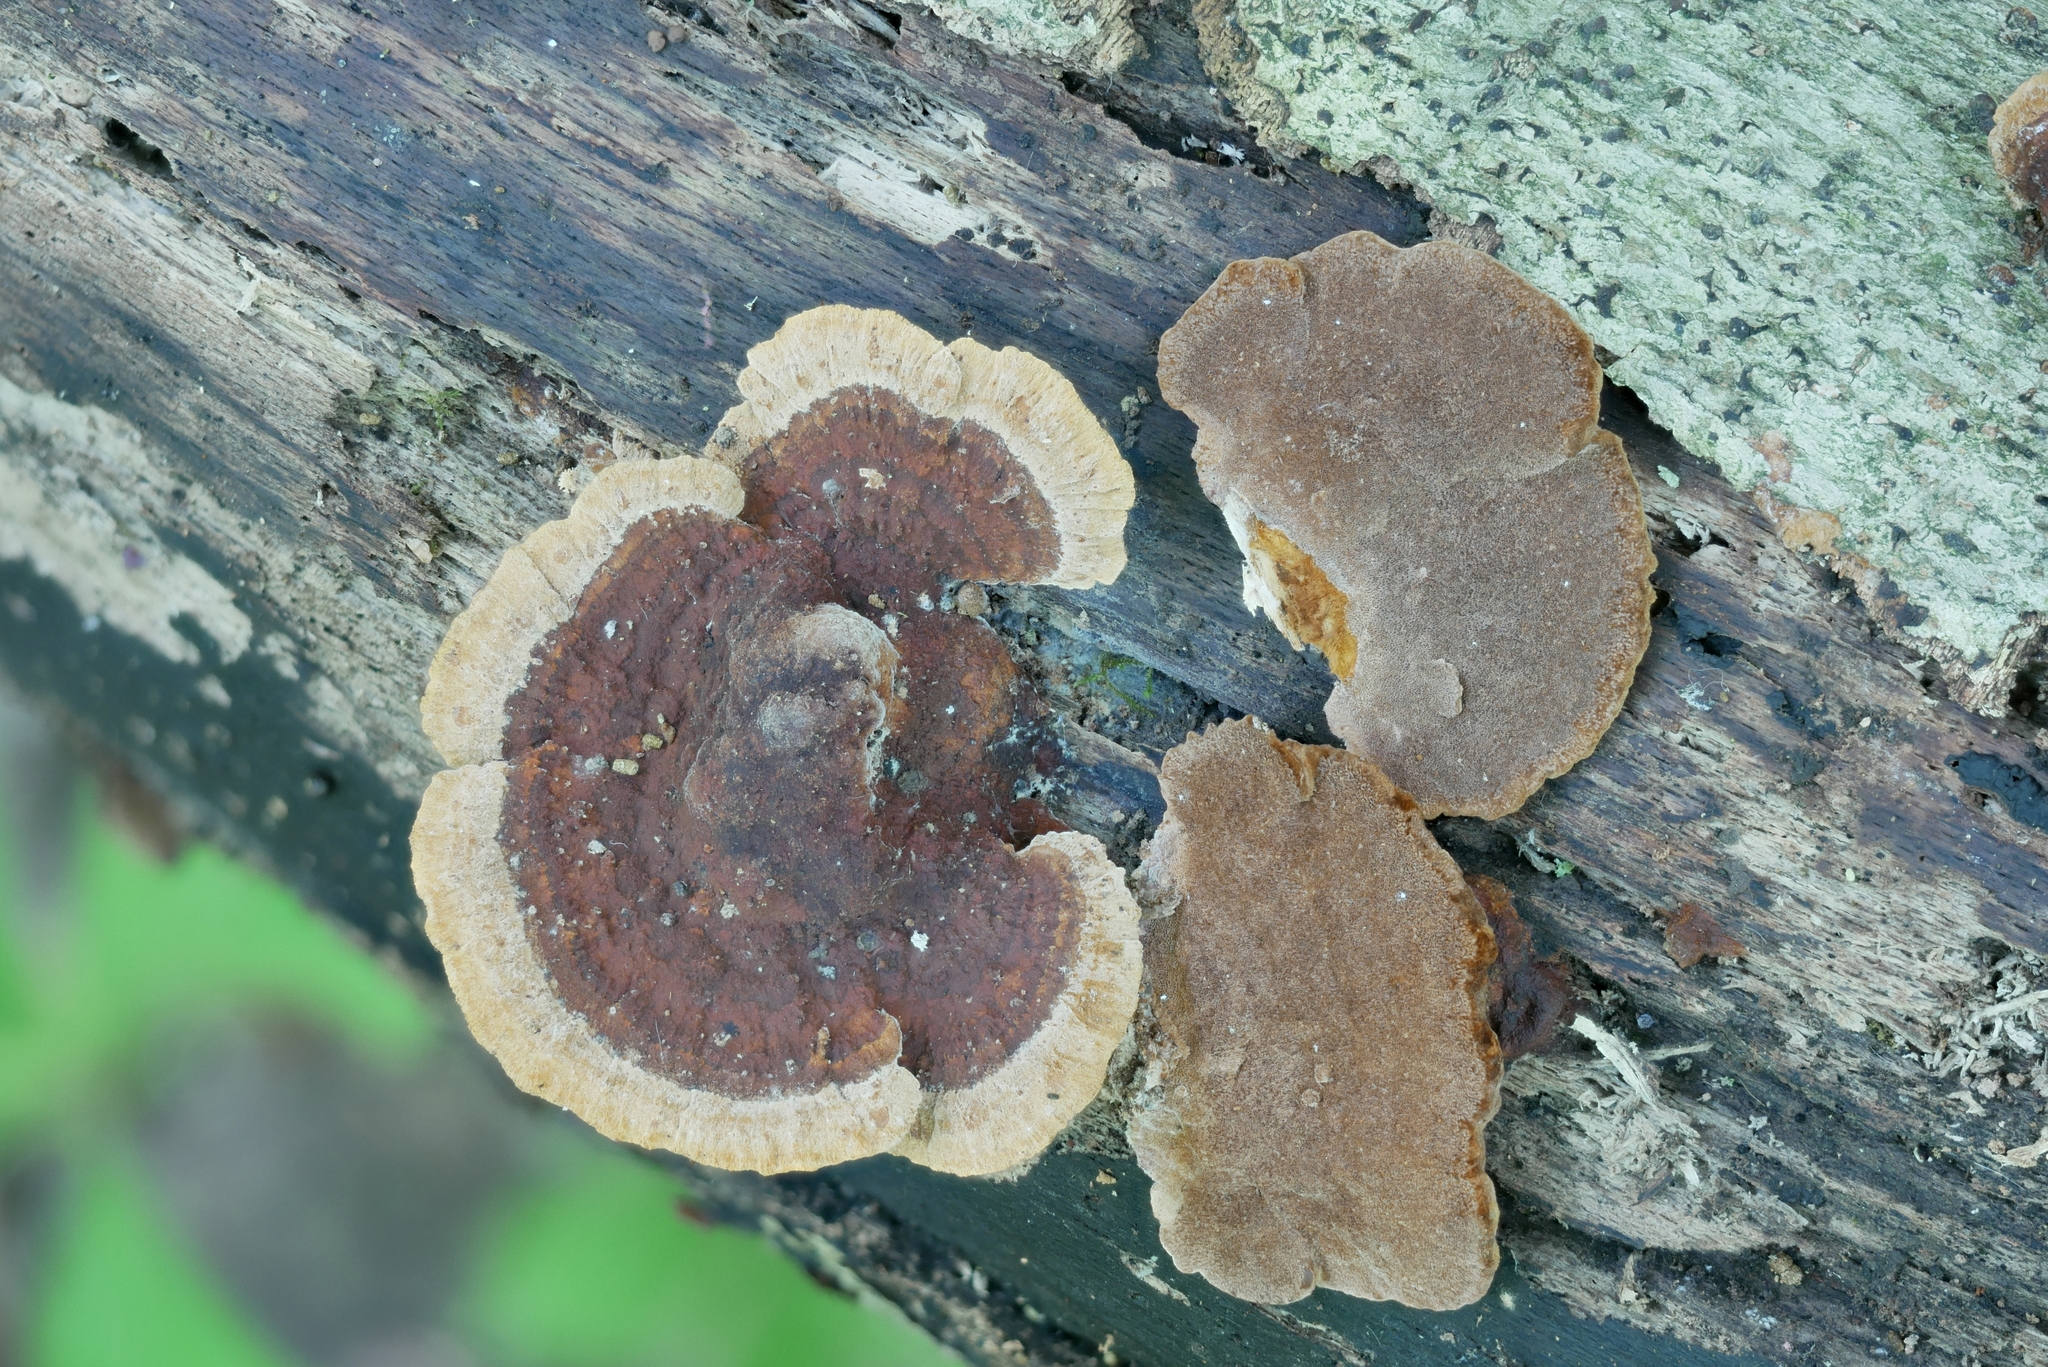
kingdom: Fungi
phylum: Basidiomycota
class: Agaricomycetes
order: Hymenochaetales
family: Hymenochaetaceae
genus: Phellinus
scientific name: Phellinus gilvus
